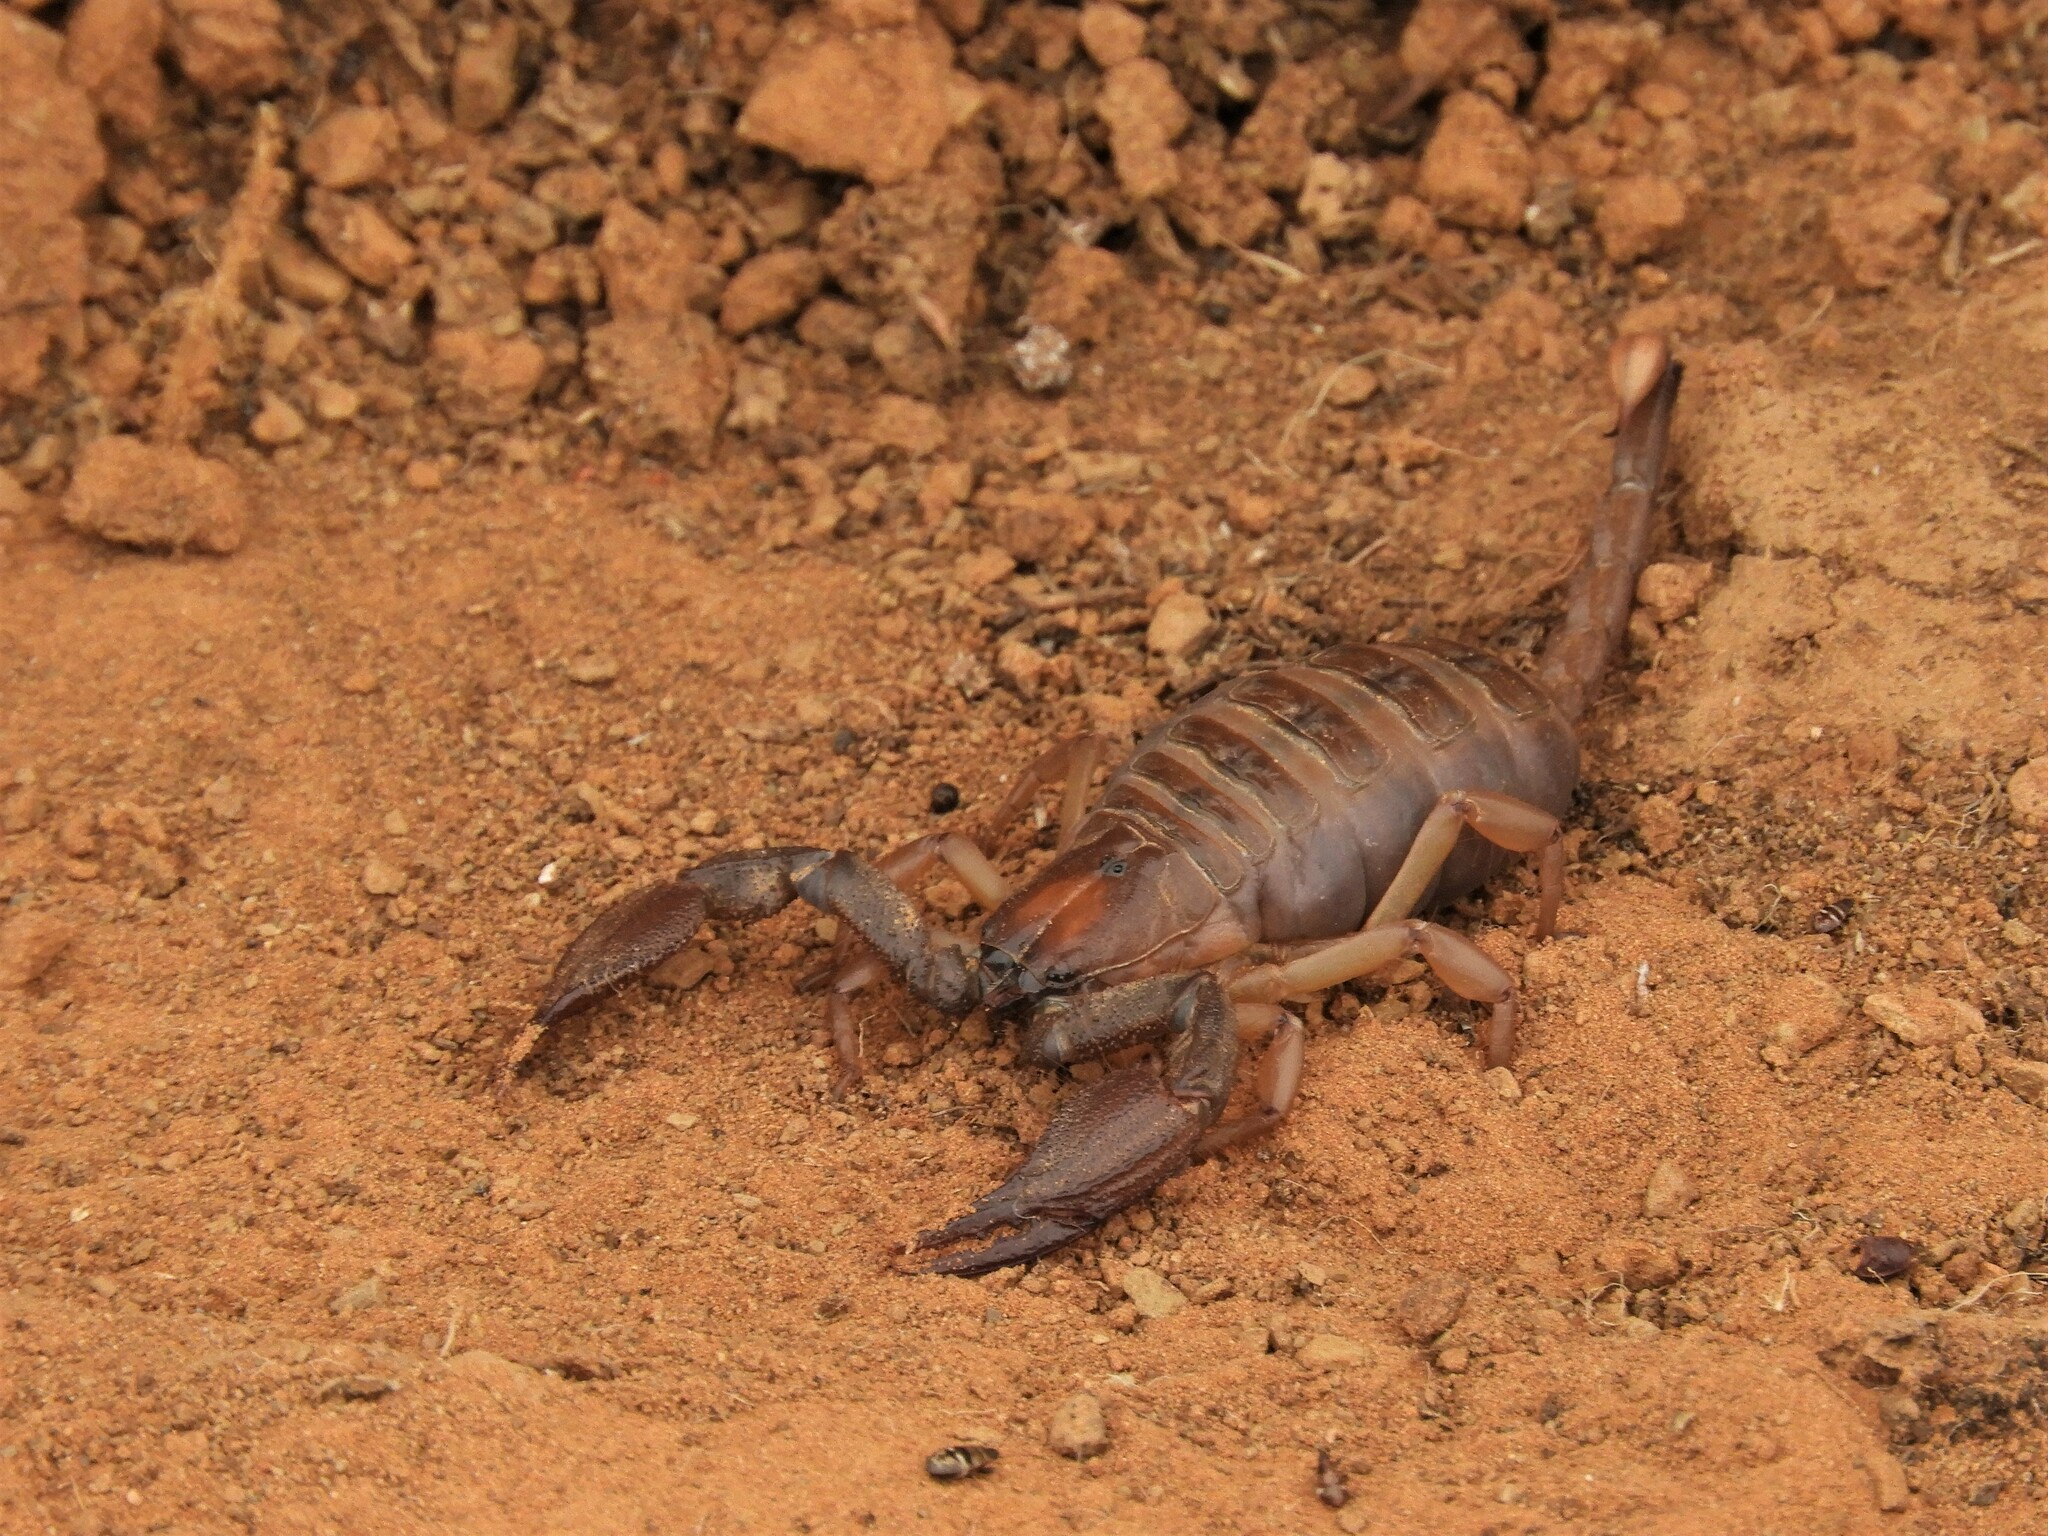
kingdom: Animalia
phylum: Arthropoda
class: Arachnida
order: Scorpiones
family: Scorpionidae
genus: Opistophthalmus
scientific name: Opistophthalmus austerus
